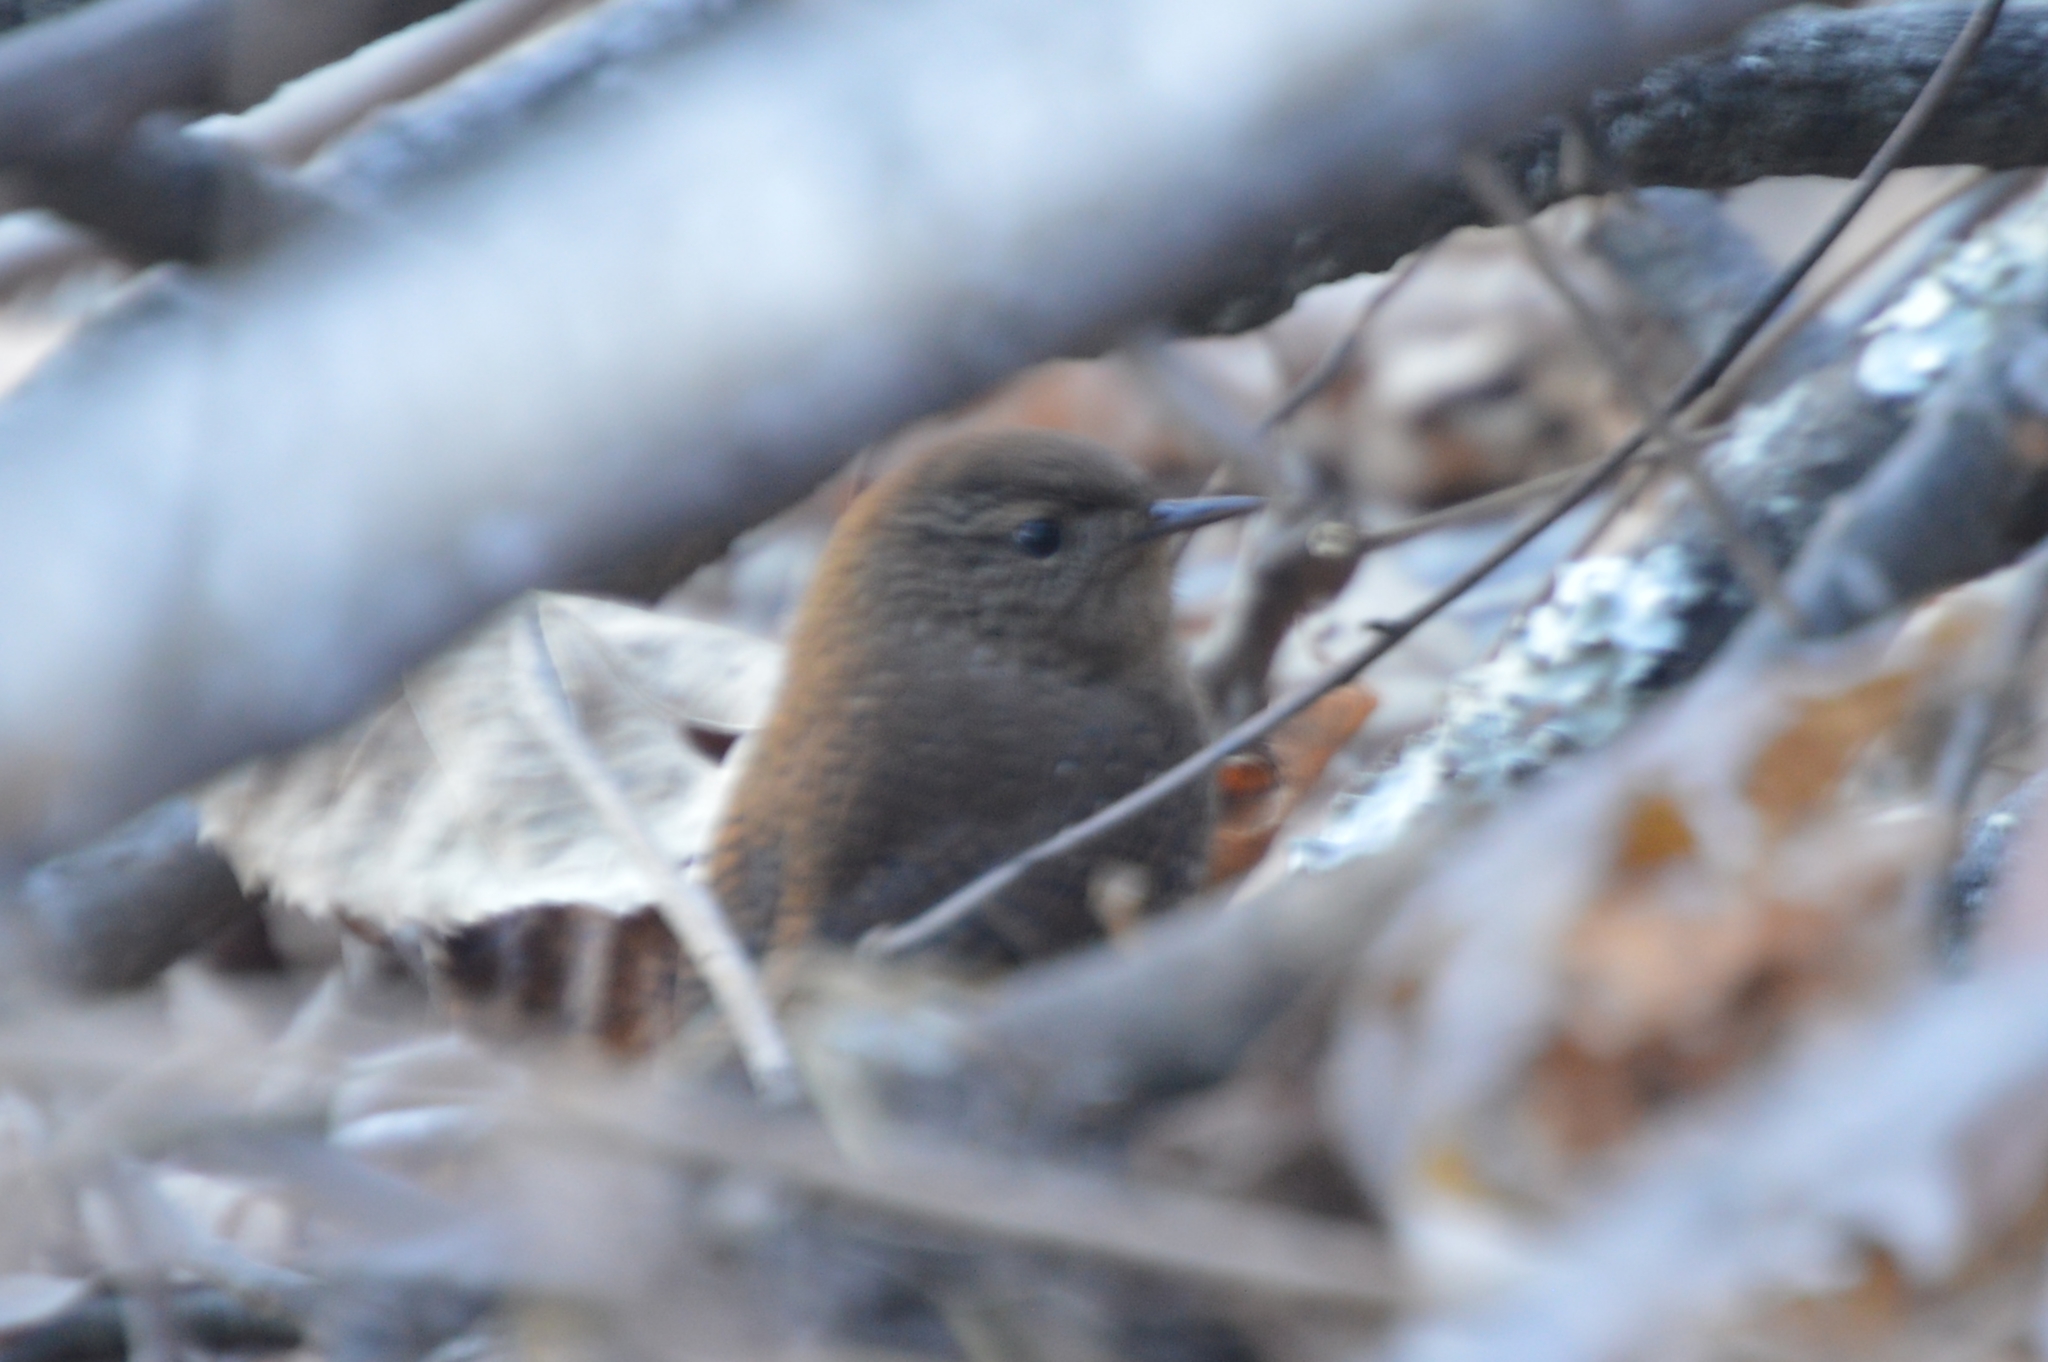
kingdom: Animalia
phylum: Chordata
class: Aves
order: Passeriformes
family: Troglodytidae
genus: Troglodytes
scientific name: Troglodytes hiemalis
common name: Winter wren
